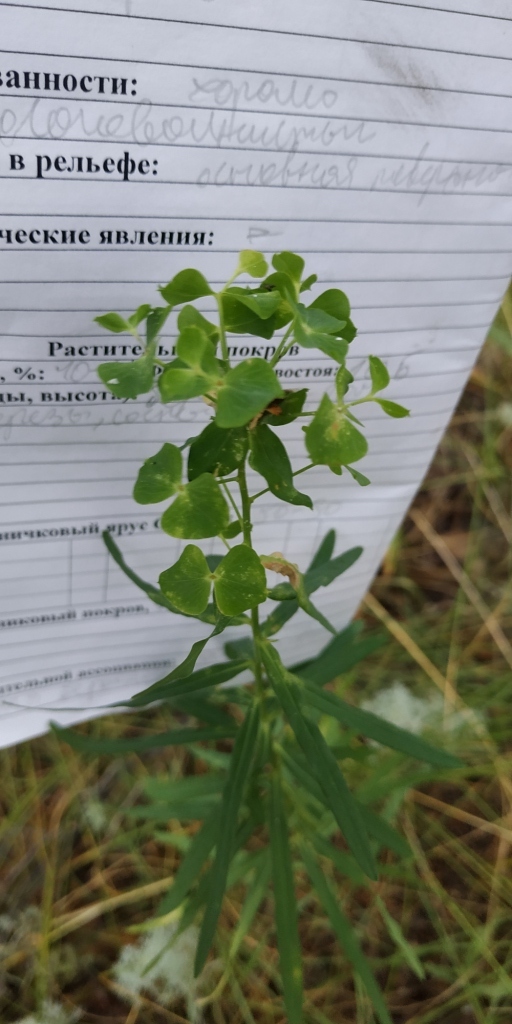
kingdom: Plantae
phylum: Tracheophyta
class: Magnoliopsida
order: Malpighiales
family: Euphorbiaceae
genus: Euphorbia
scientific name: Euphorbia virgata
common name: Leafy spurge
